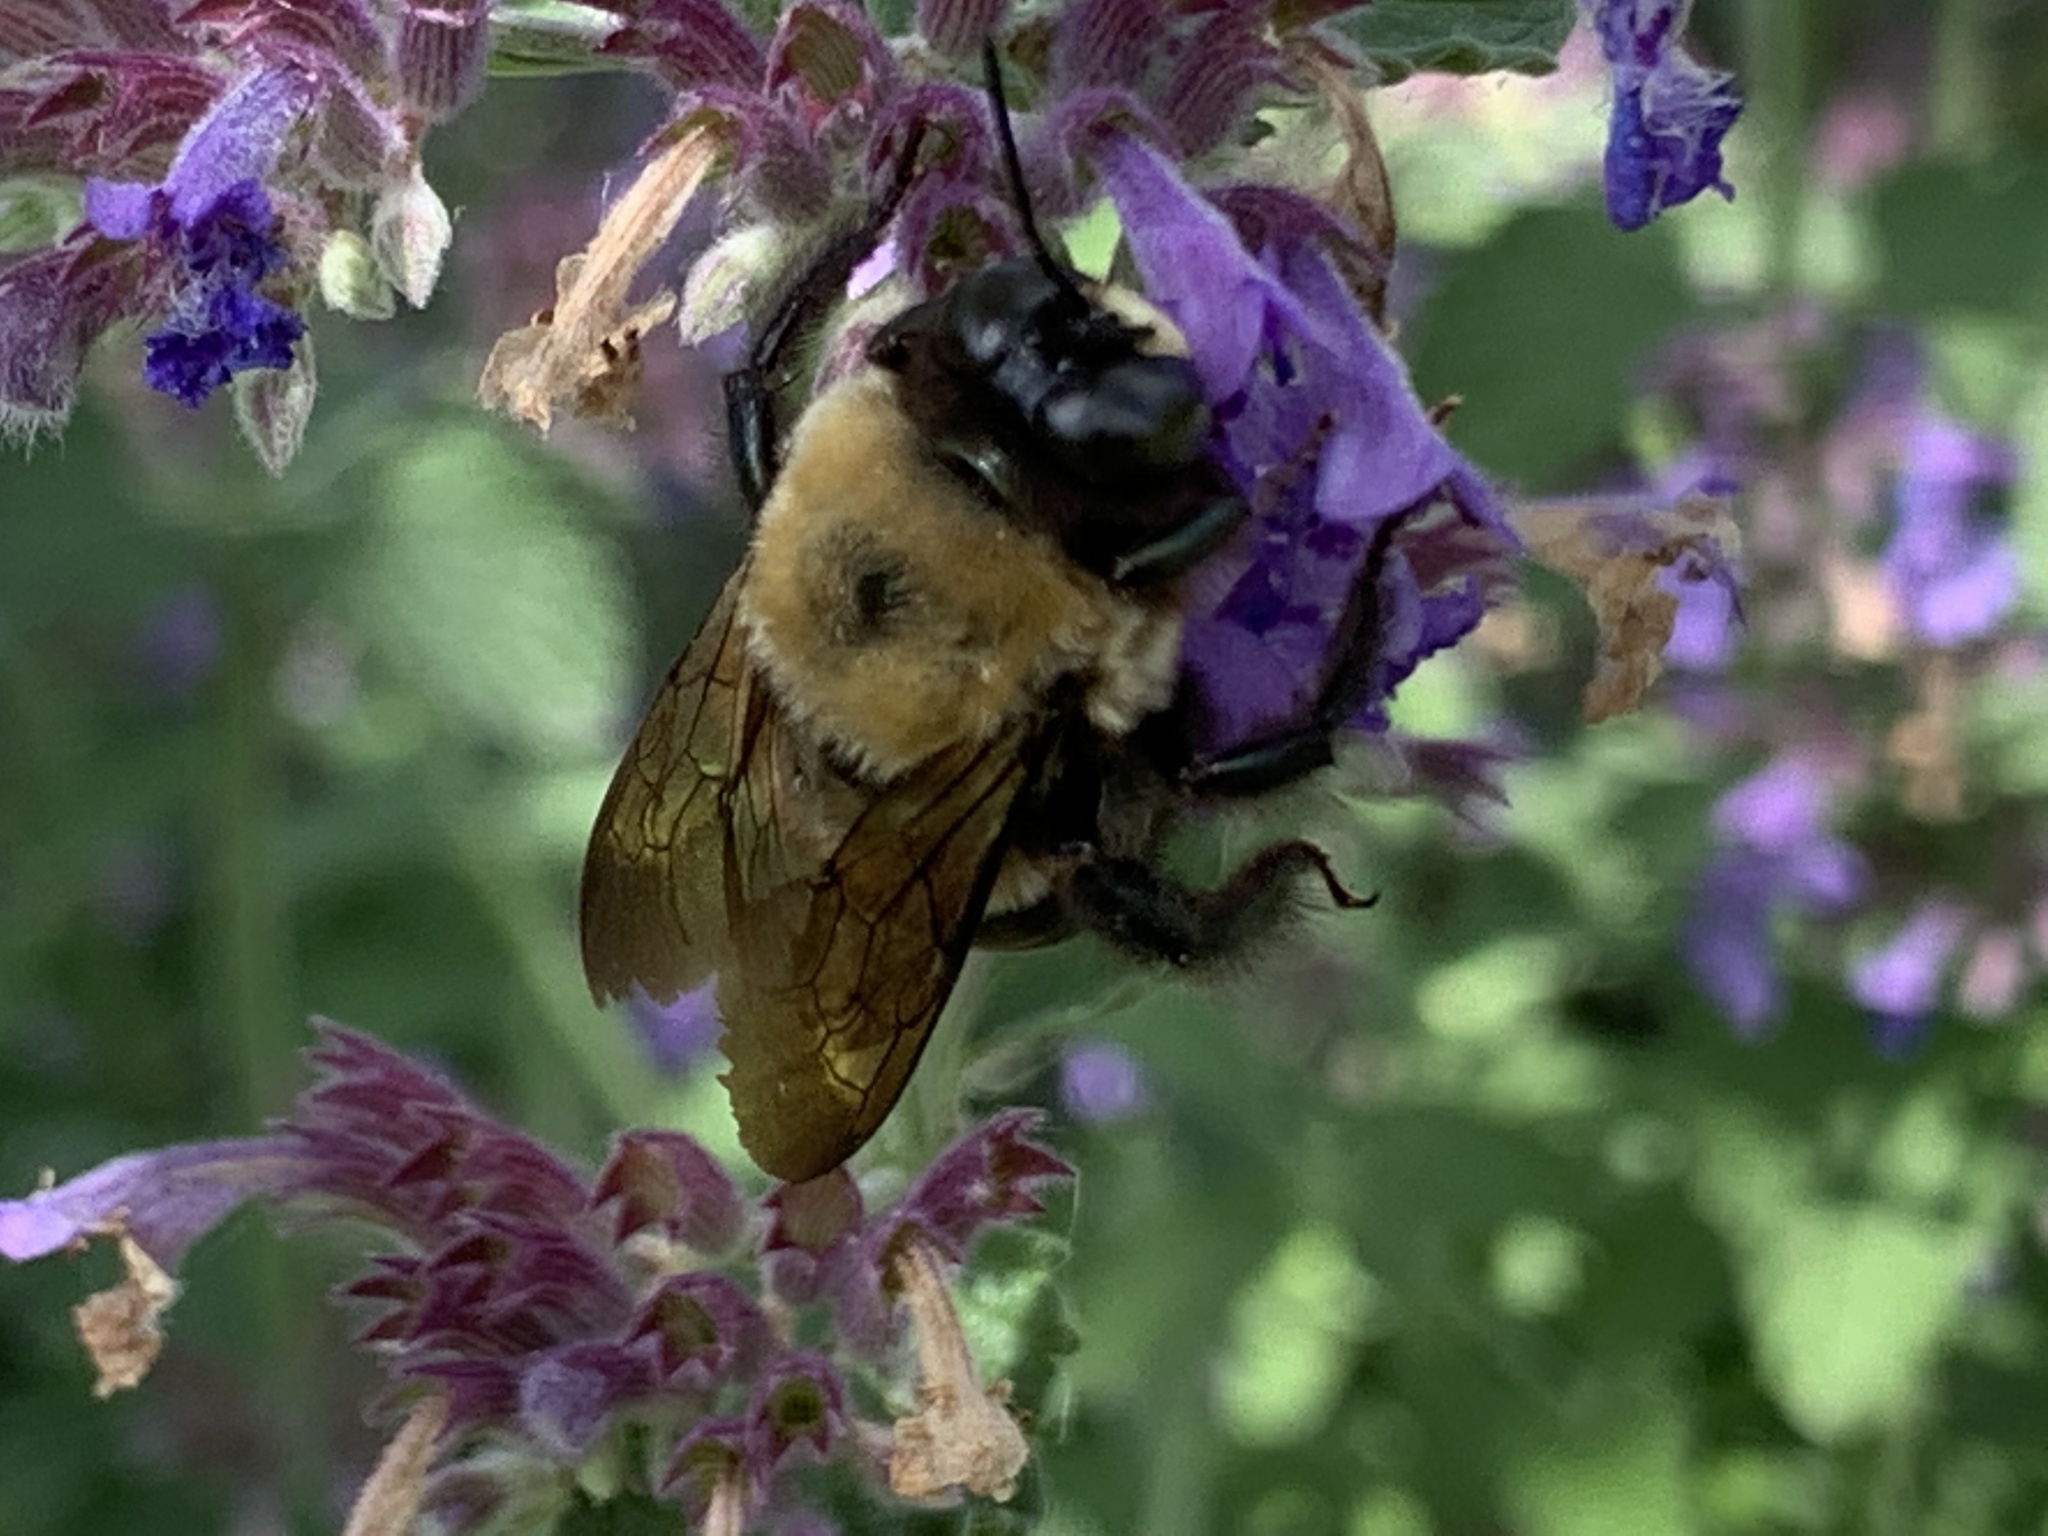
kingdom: Animalia
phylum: Arthropoda
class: Insecta
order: Hymenoptera
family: Apidae
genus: Xylocopa
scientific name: Xylocopa virginica
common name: Carpenter bee
